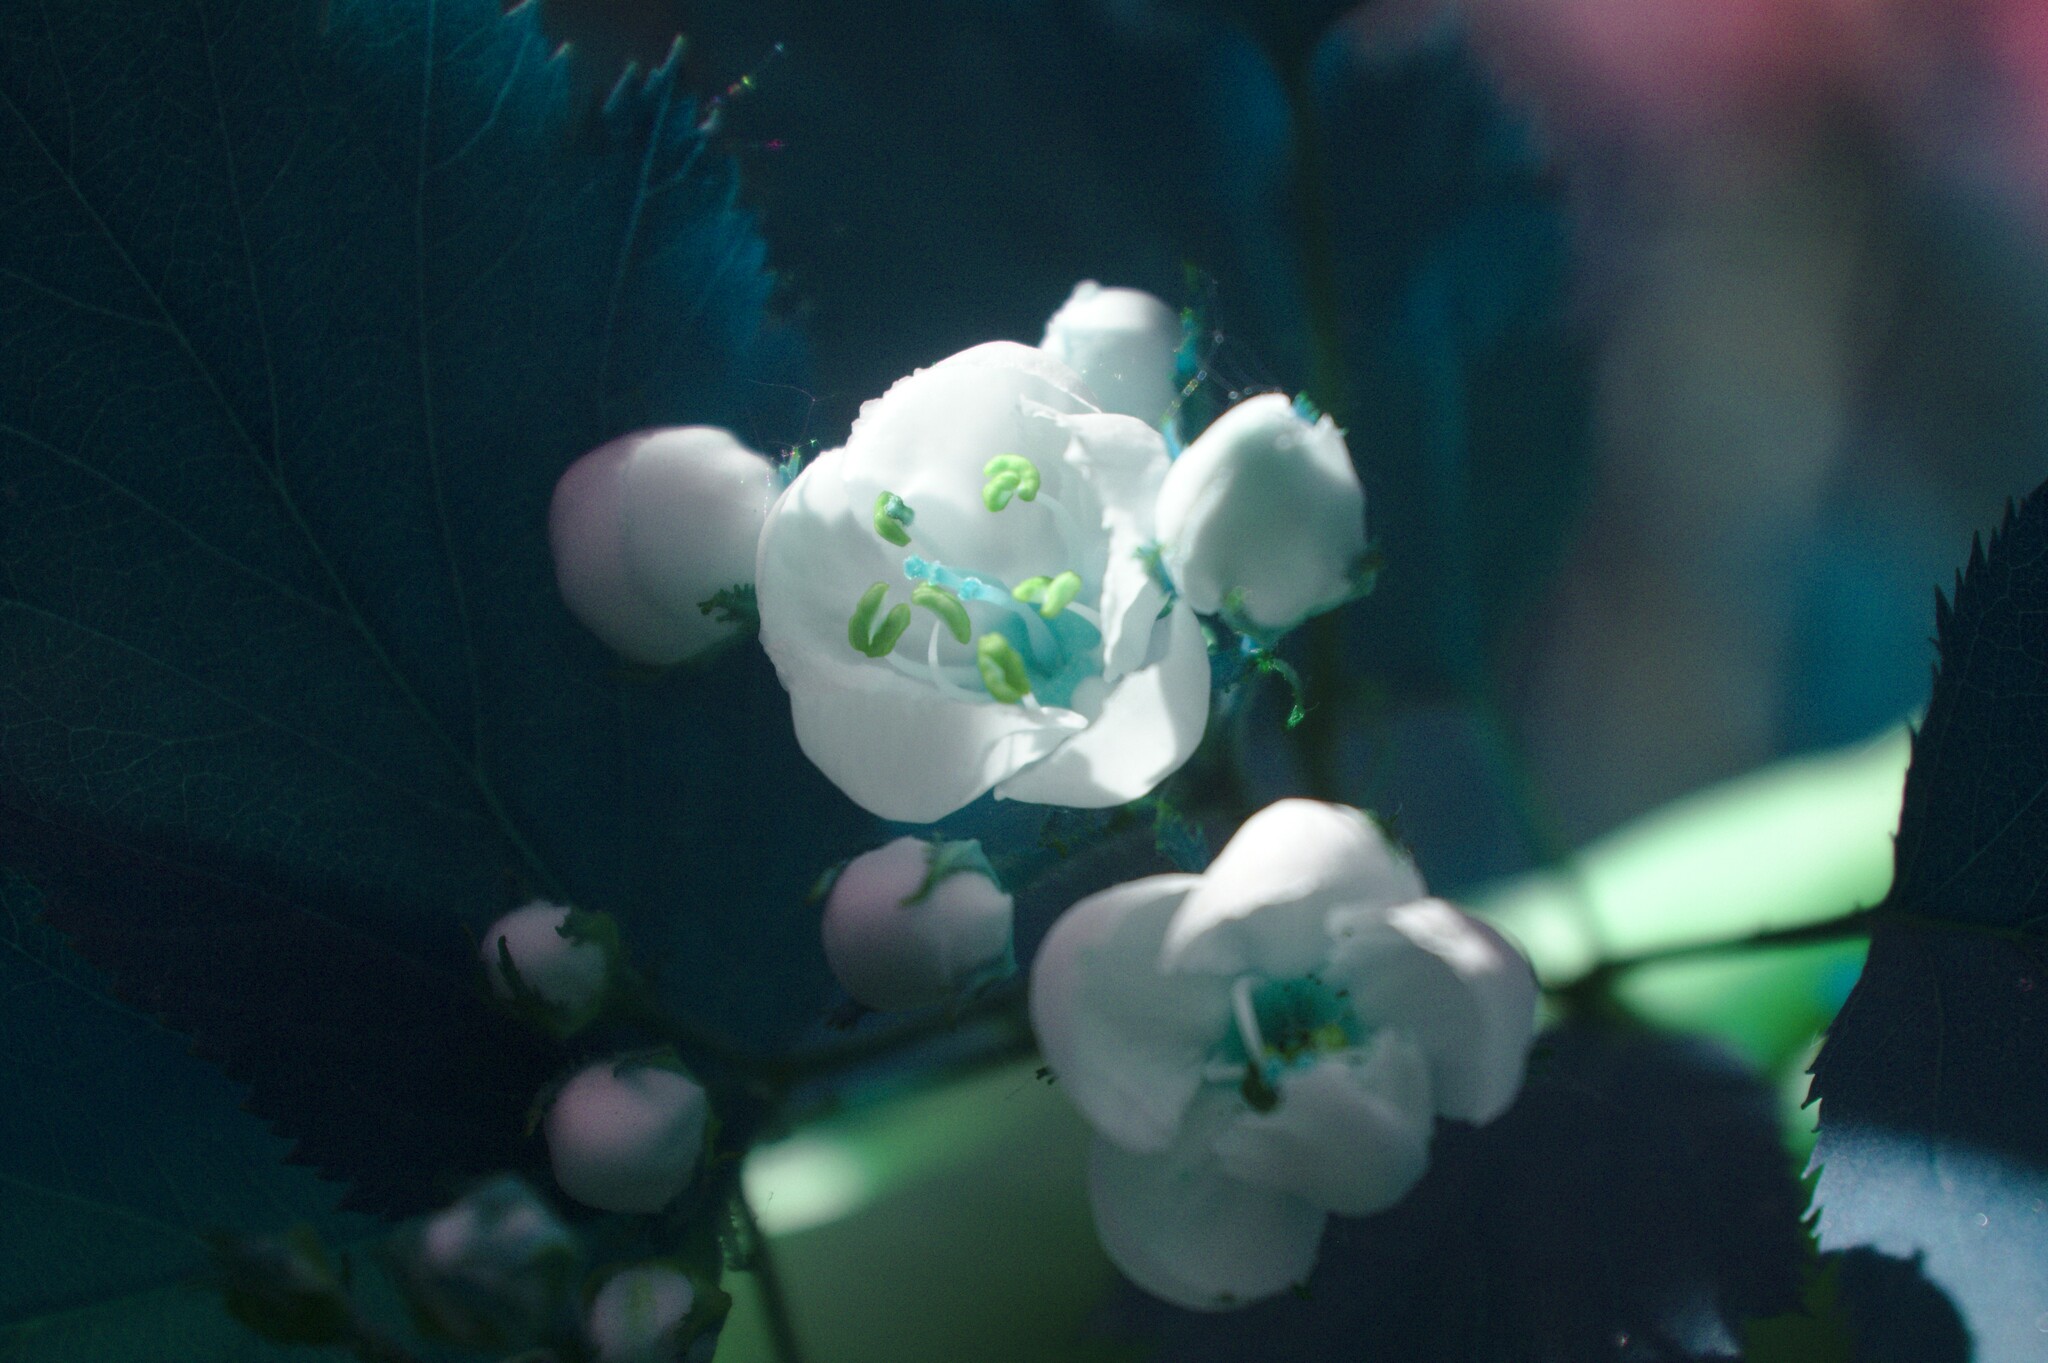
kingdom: Plantae
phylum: Tracheophyta
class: Magnoliopsida
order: Rosales
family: Rosaceae
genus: Crataegus
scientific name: Crataegus holmesiana
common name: Holmes' hawthorn
